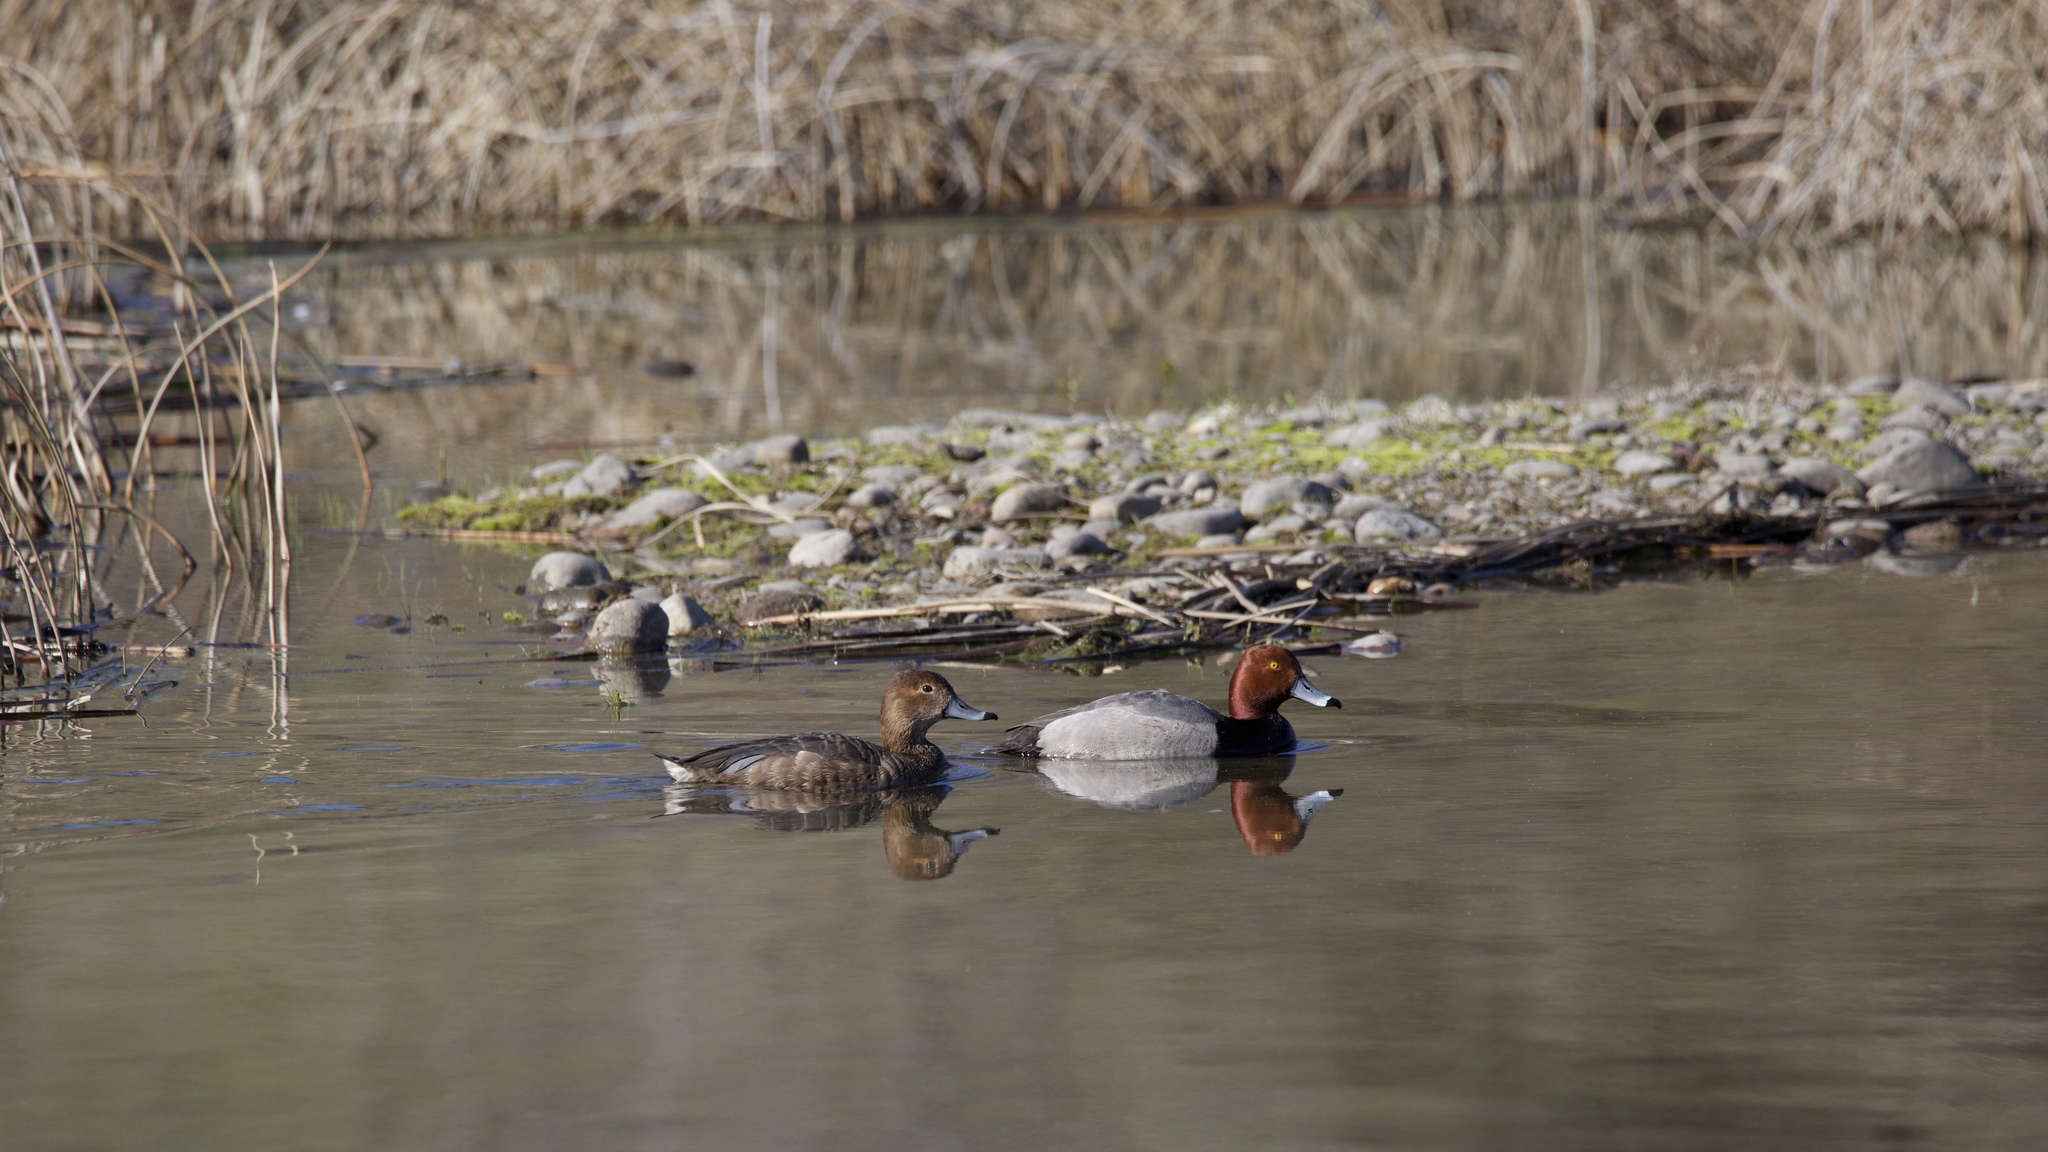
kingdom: Animalia
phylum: Chordata
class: Aves
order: Anseriformes
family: Anatidae
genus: Aythya
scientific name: Aythya americana
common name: Redhead
